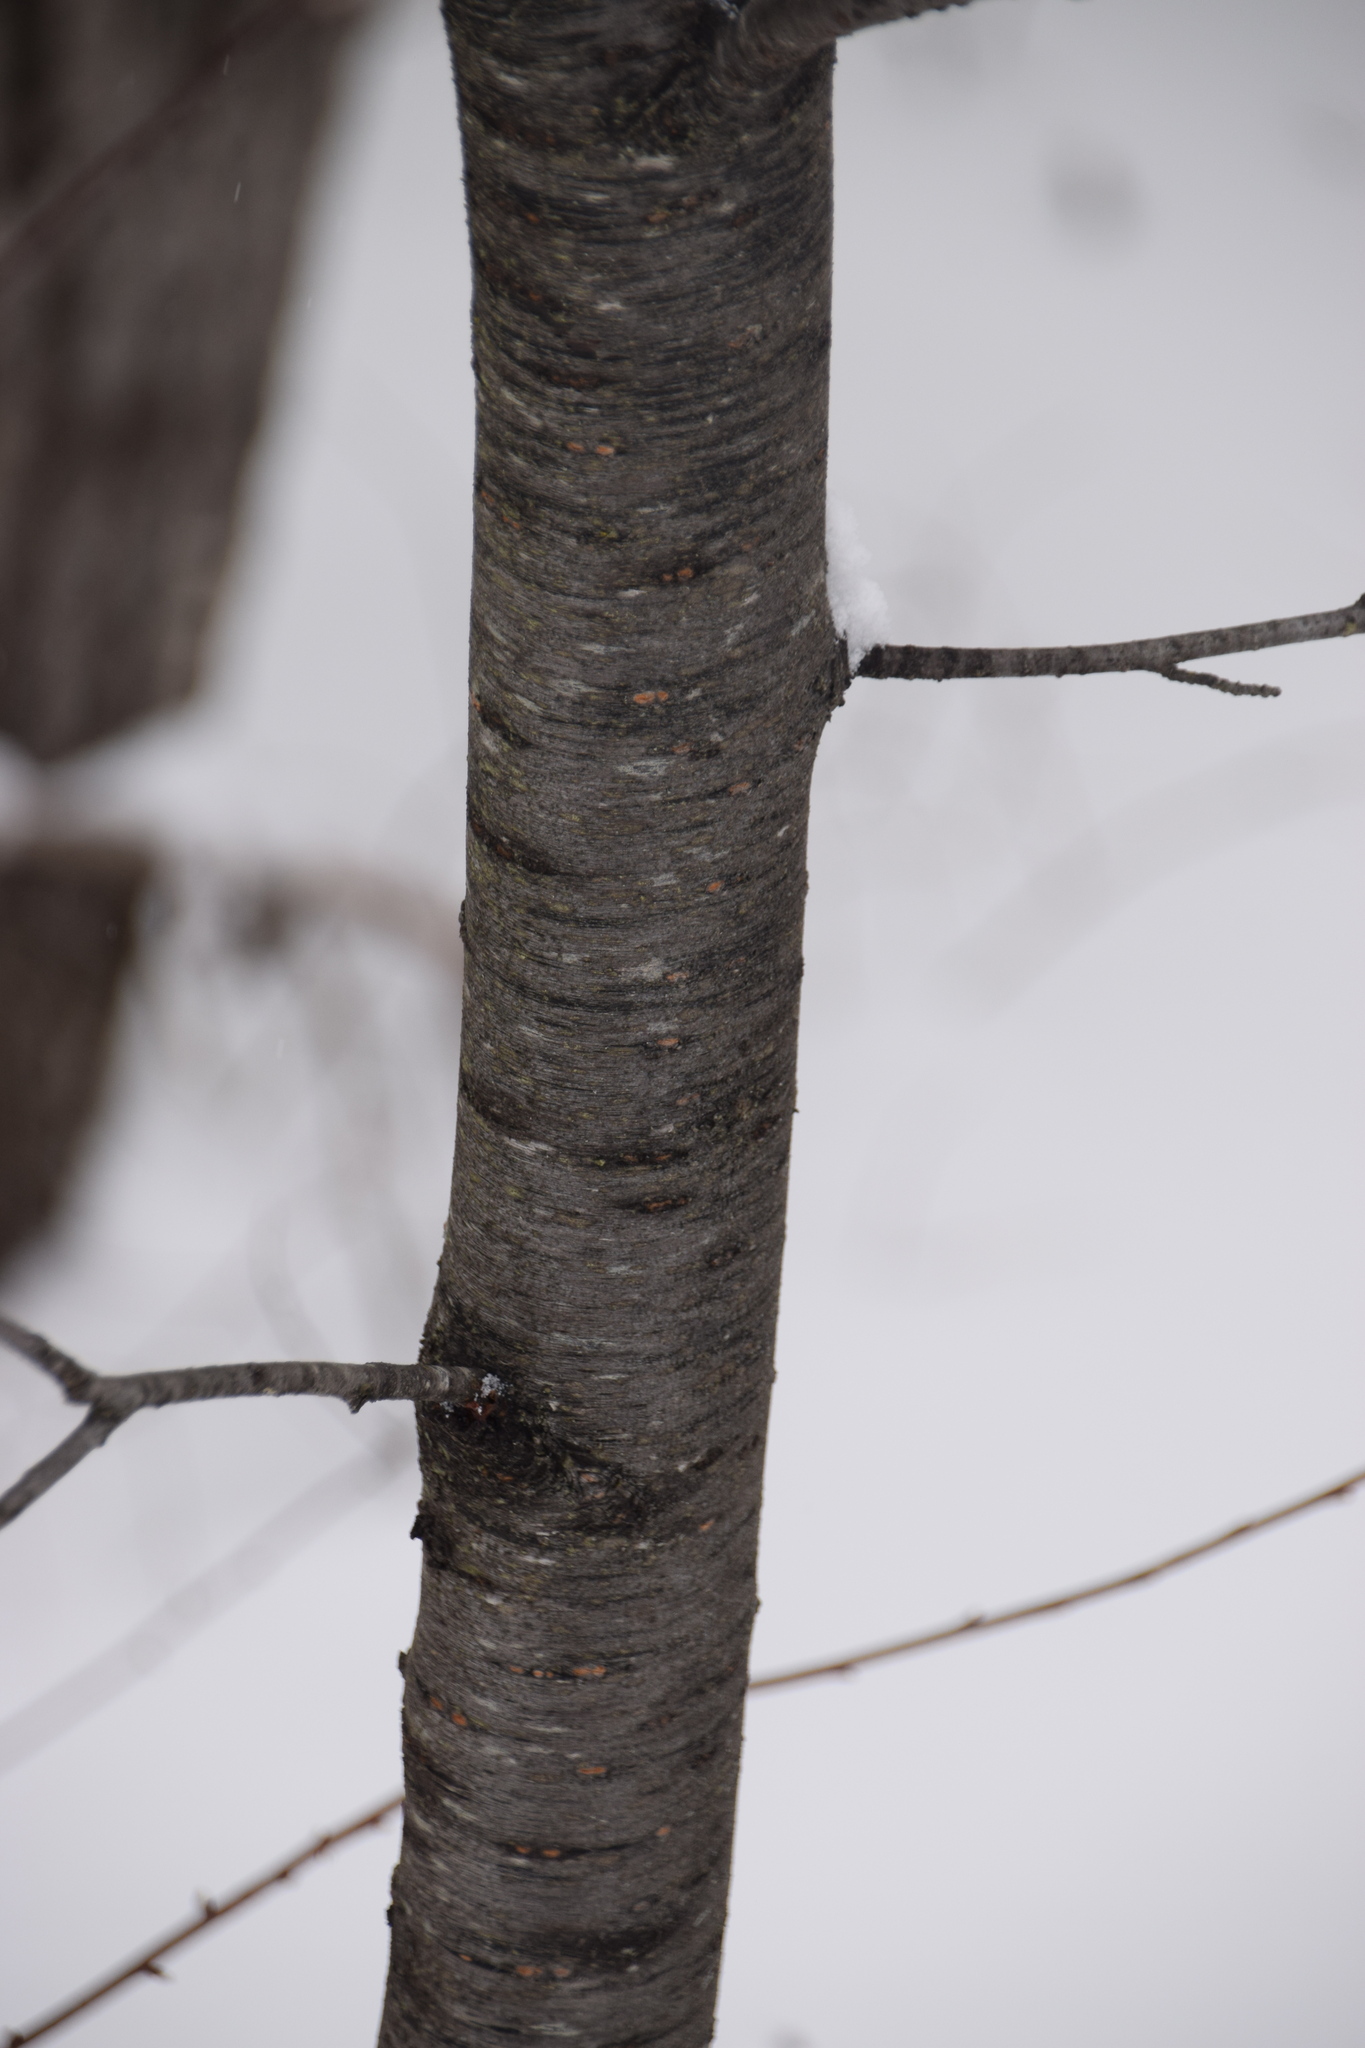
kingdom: Plantae
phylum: Tracheophyta
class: Magnoliopsida
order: Rosales
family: Rosaceae
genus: Prunus
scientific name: Prunus pensylvanica
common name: Pin cherry
